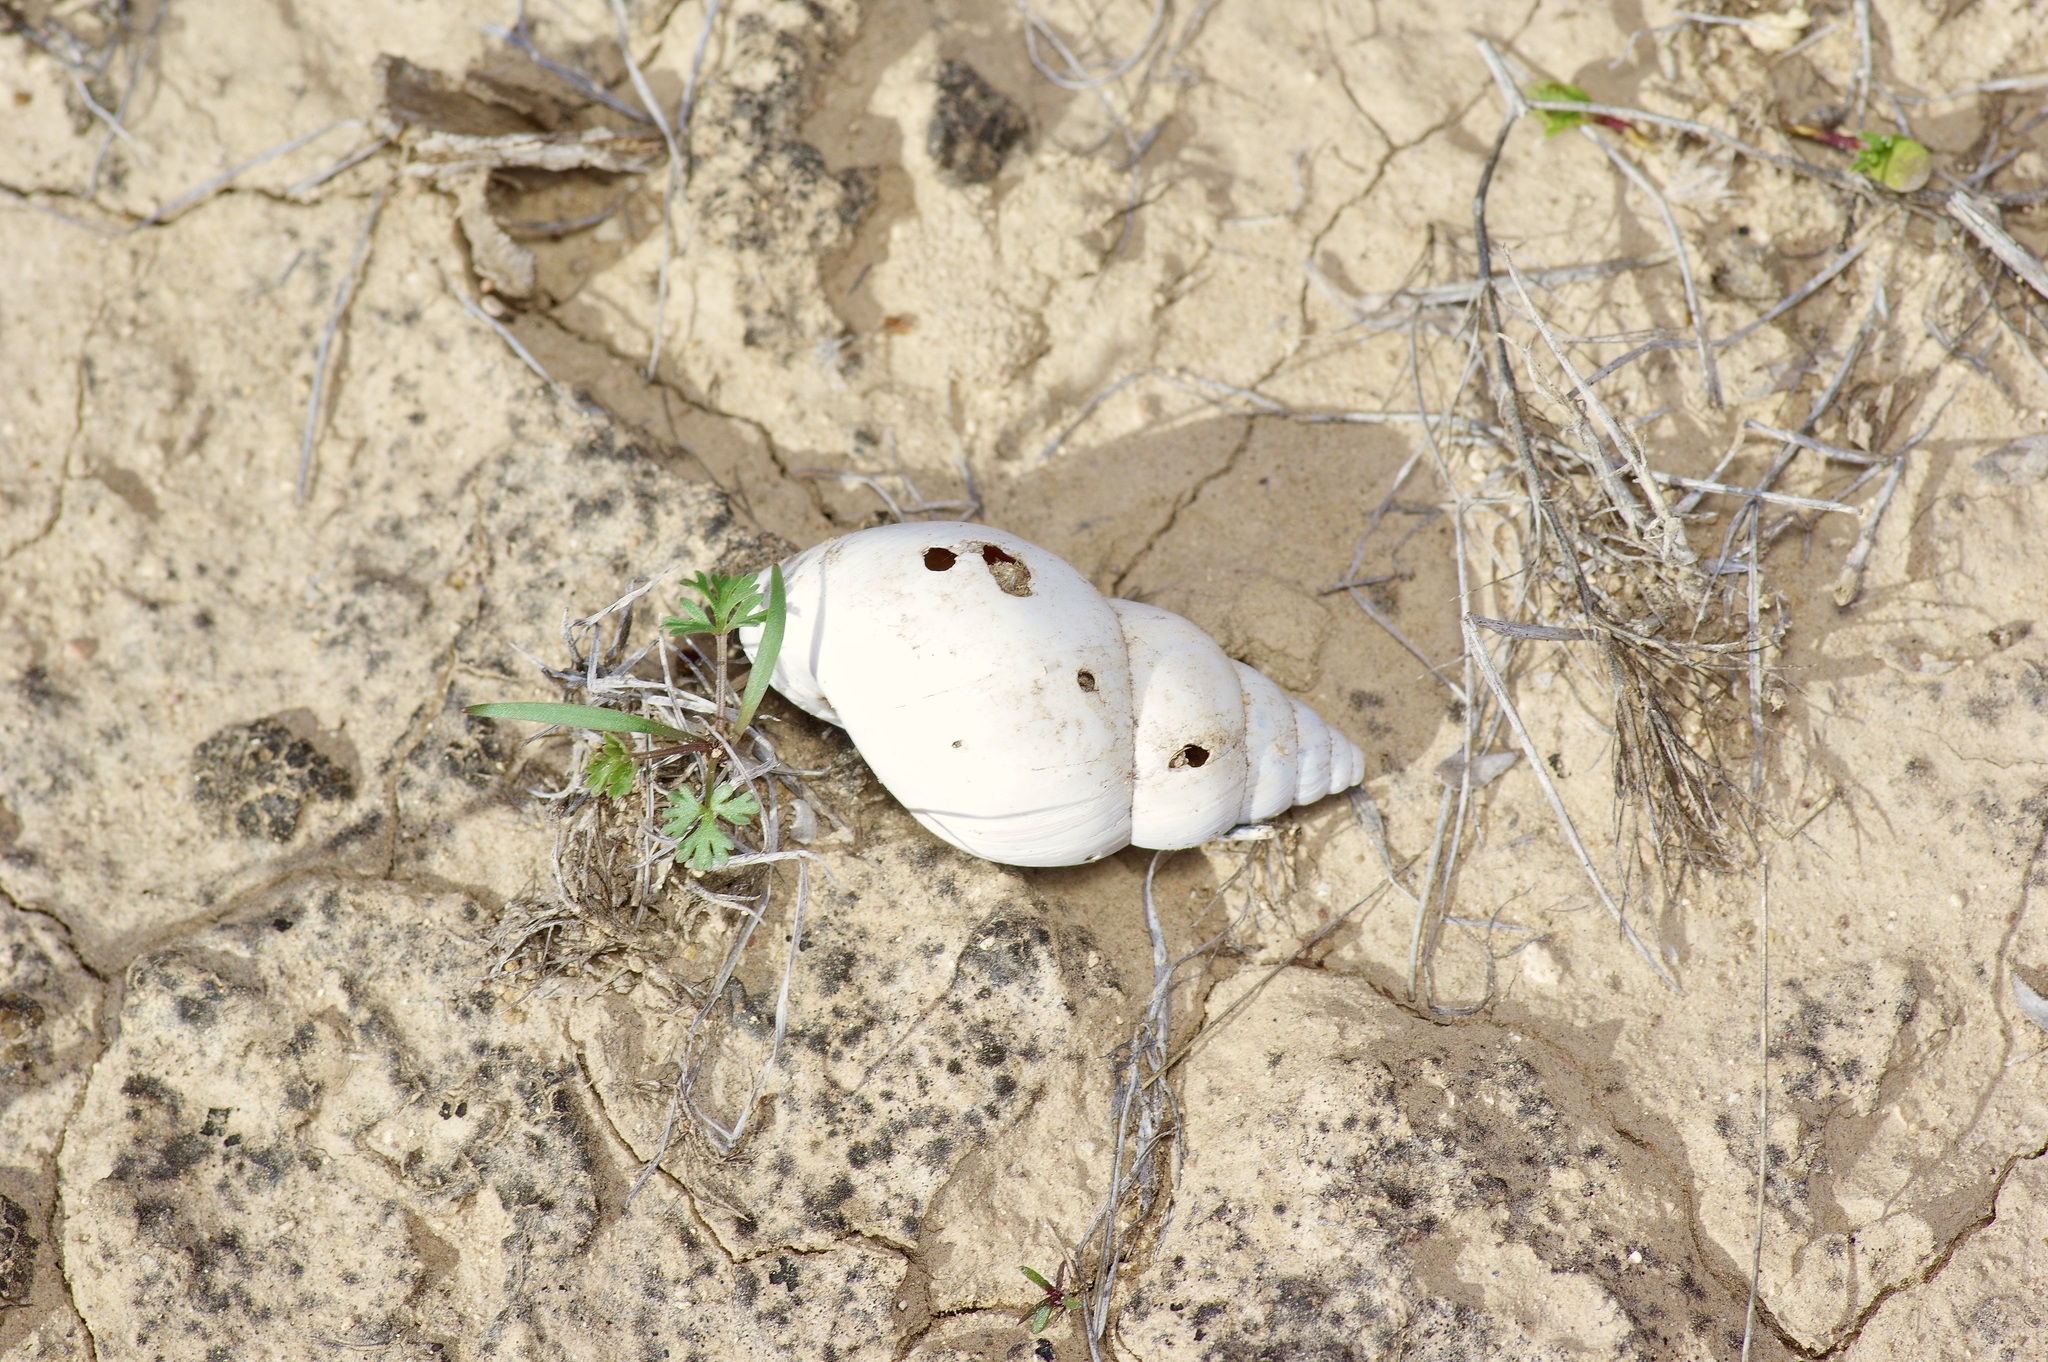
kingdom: Animalia
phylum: Mollusca
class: Gastropoda
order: Stylommatophora
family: Bulimulidae
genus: Rabdotus
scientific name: Rabdotus dealbatus
